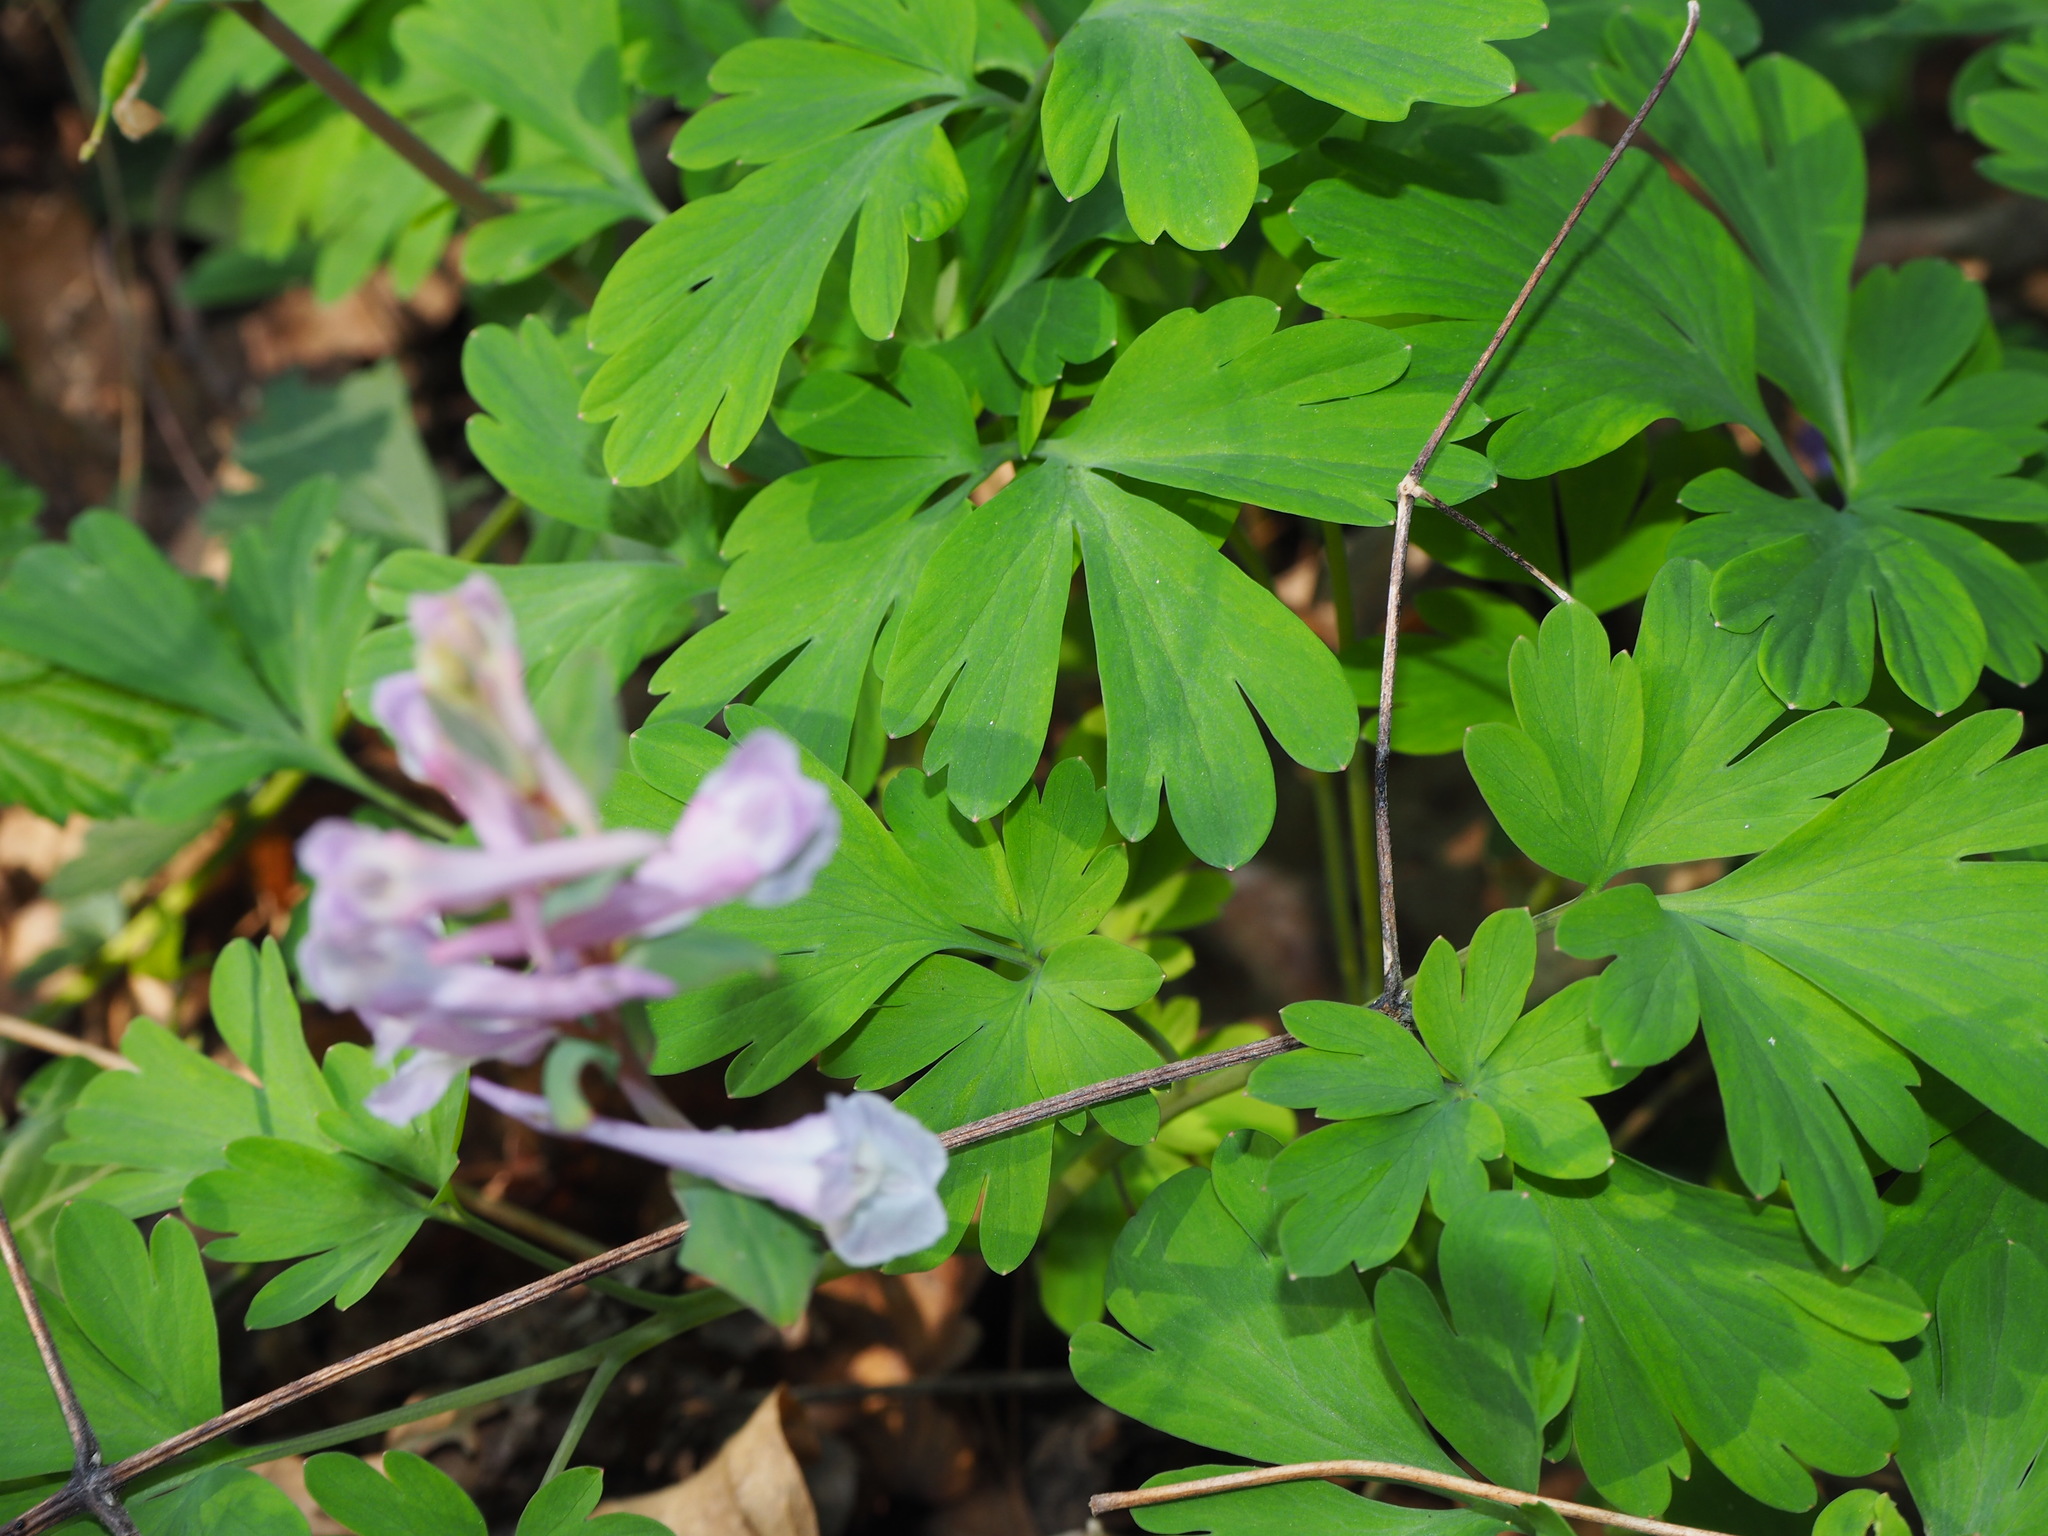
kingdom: Plantae
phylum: Tracheophyta
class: Magnoliopsida
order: Ranunculales
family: Papaveraceae
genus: Corydalis
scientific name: Corydalis cava
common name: Hollowroot
